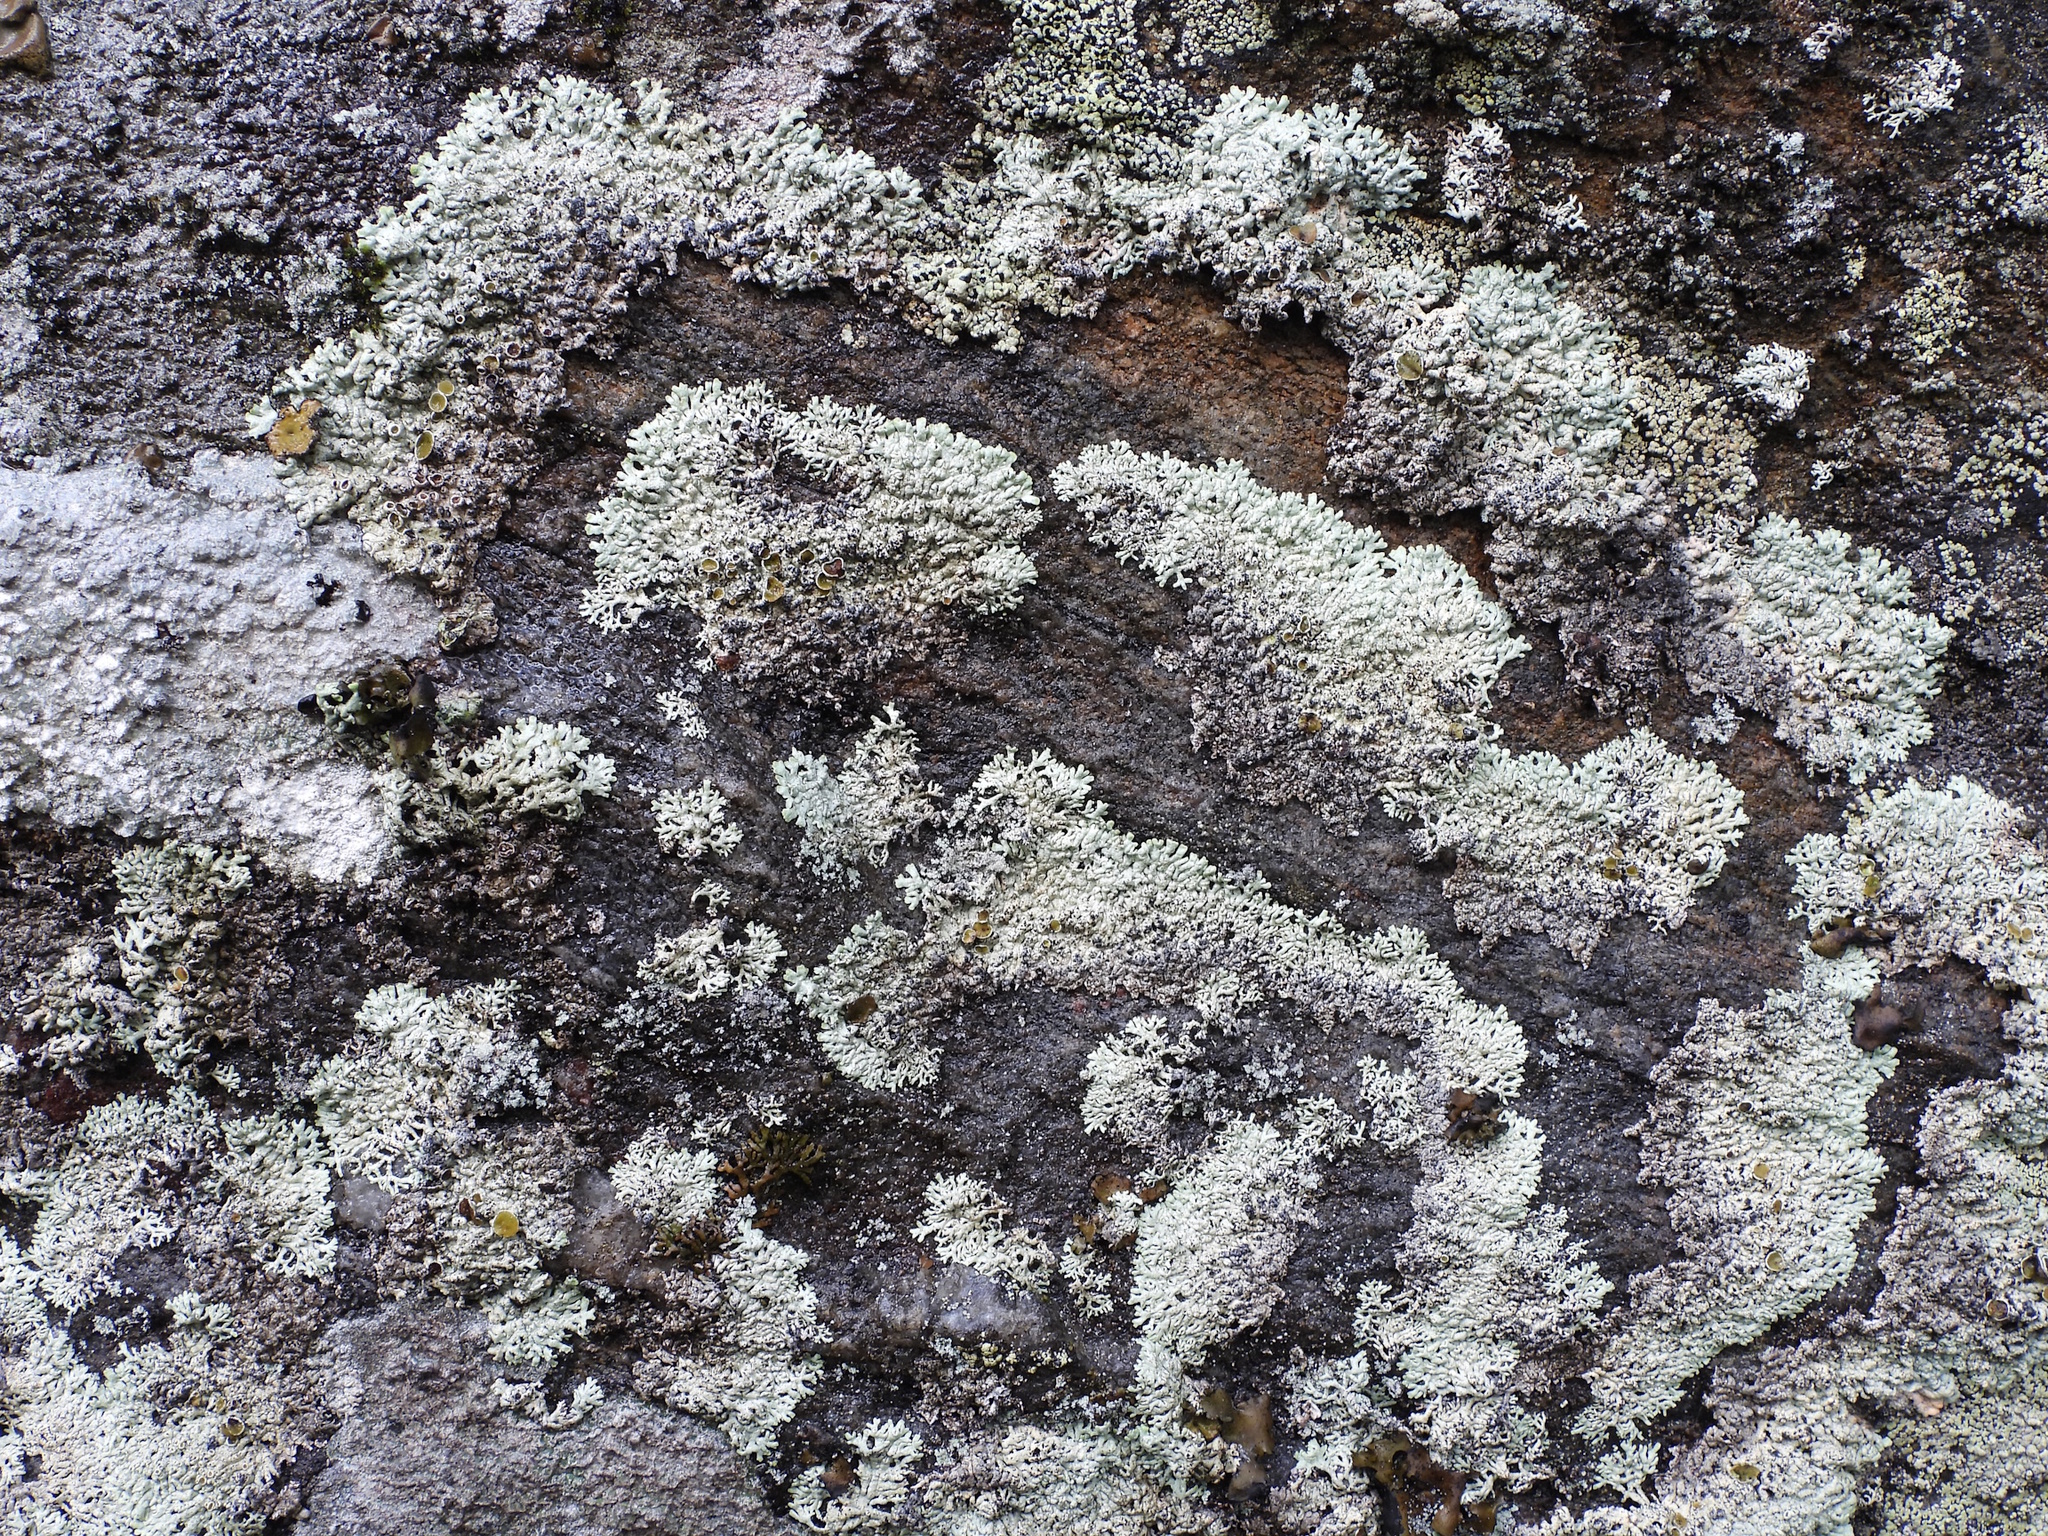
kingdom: Fungi
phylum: Ascomycota
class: Lecanoromycetes
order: Lecanorales
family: Parmeliaceae
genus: Arctoparmelia
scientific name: Arctoparmelia centrifuga
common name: Concentric ring lichen
